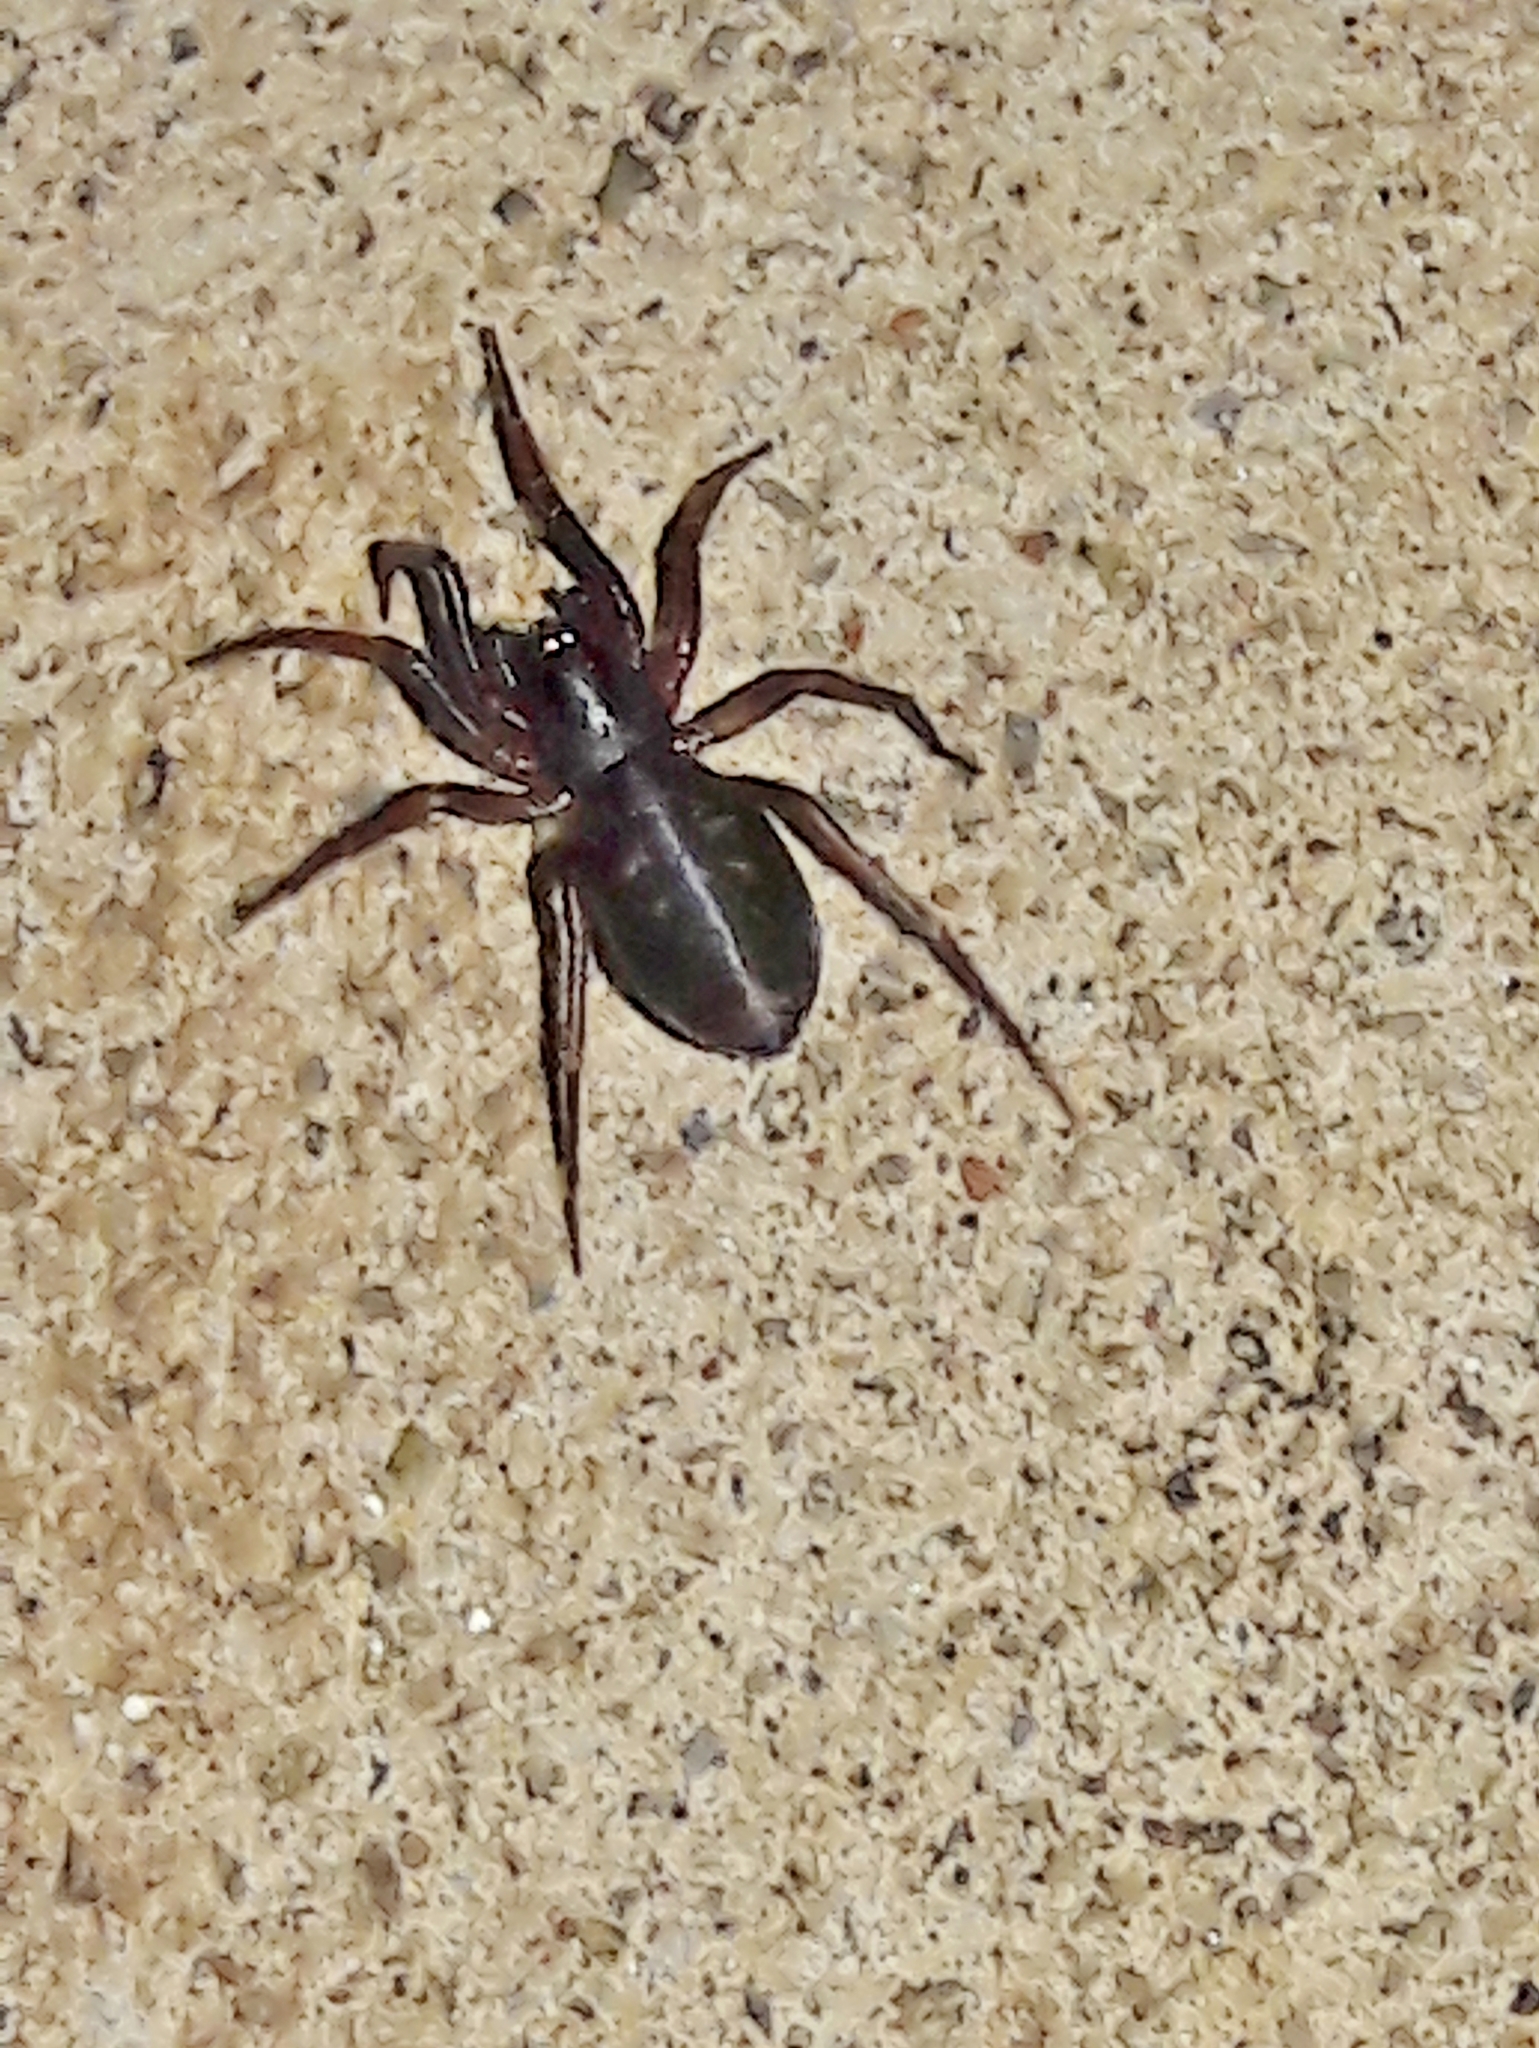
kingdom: Animalia
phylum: Arthropoda
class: Arachnida
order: Araneae
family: Corinnidae
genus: Falconina
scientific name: Falconina gracilis
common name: Antmimic spider
